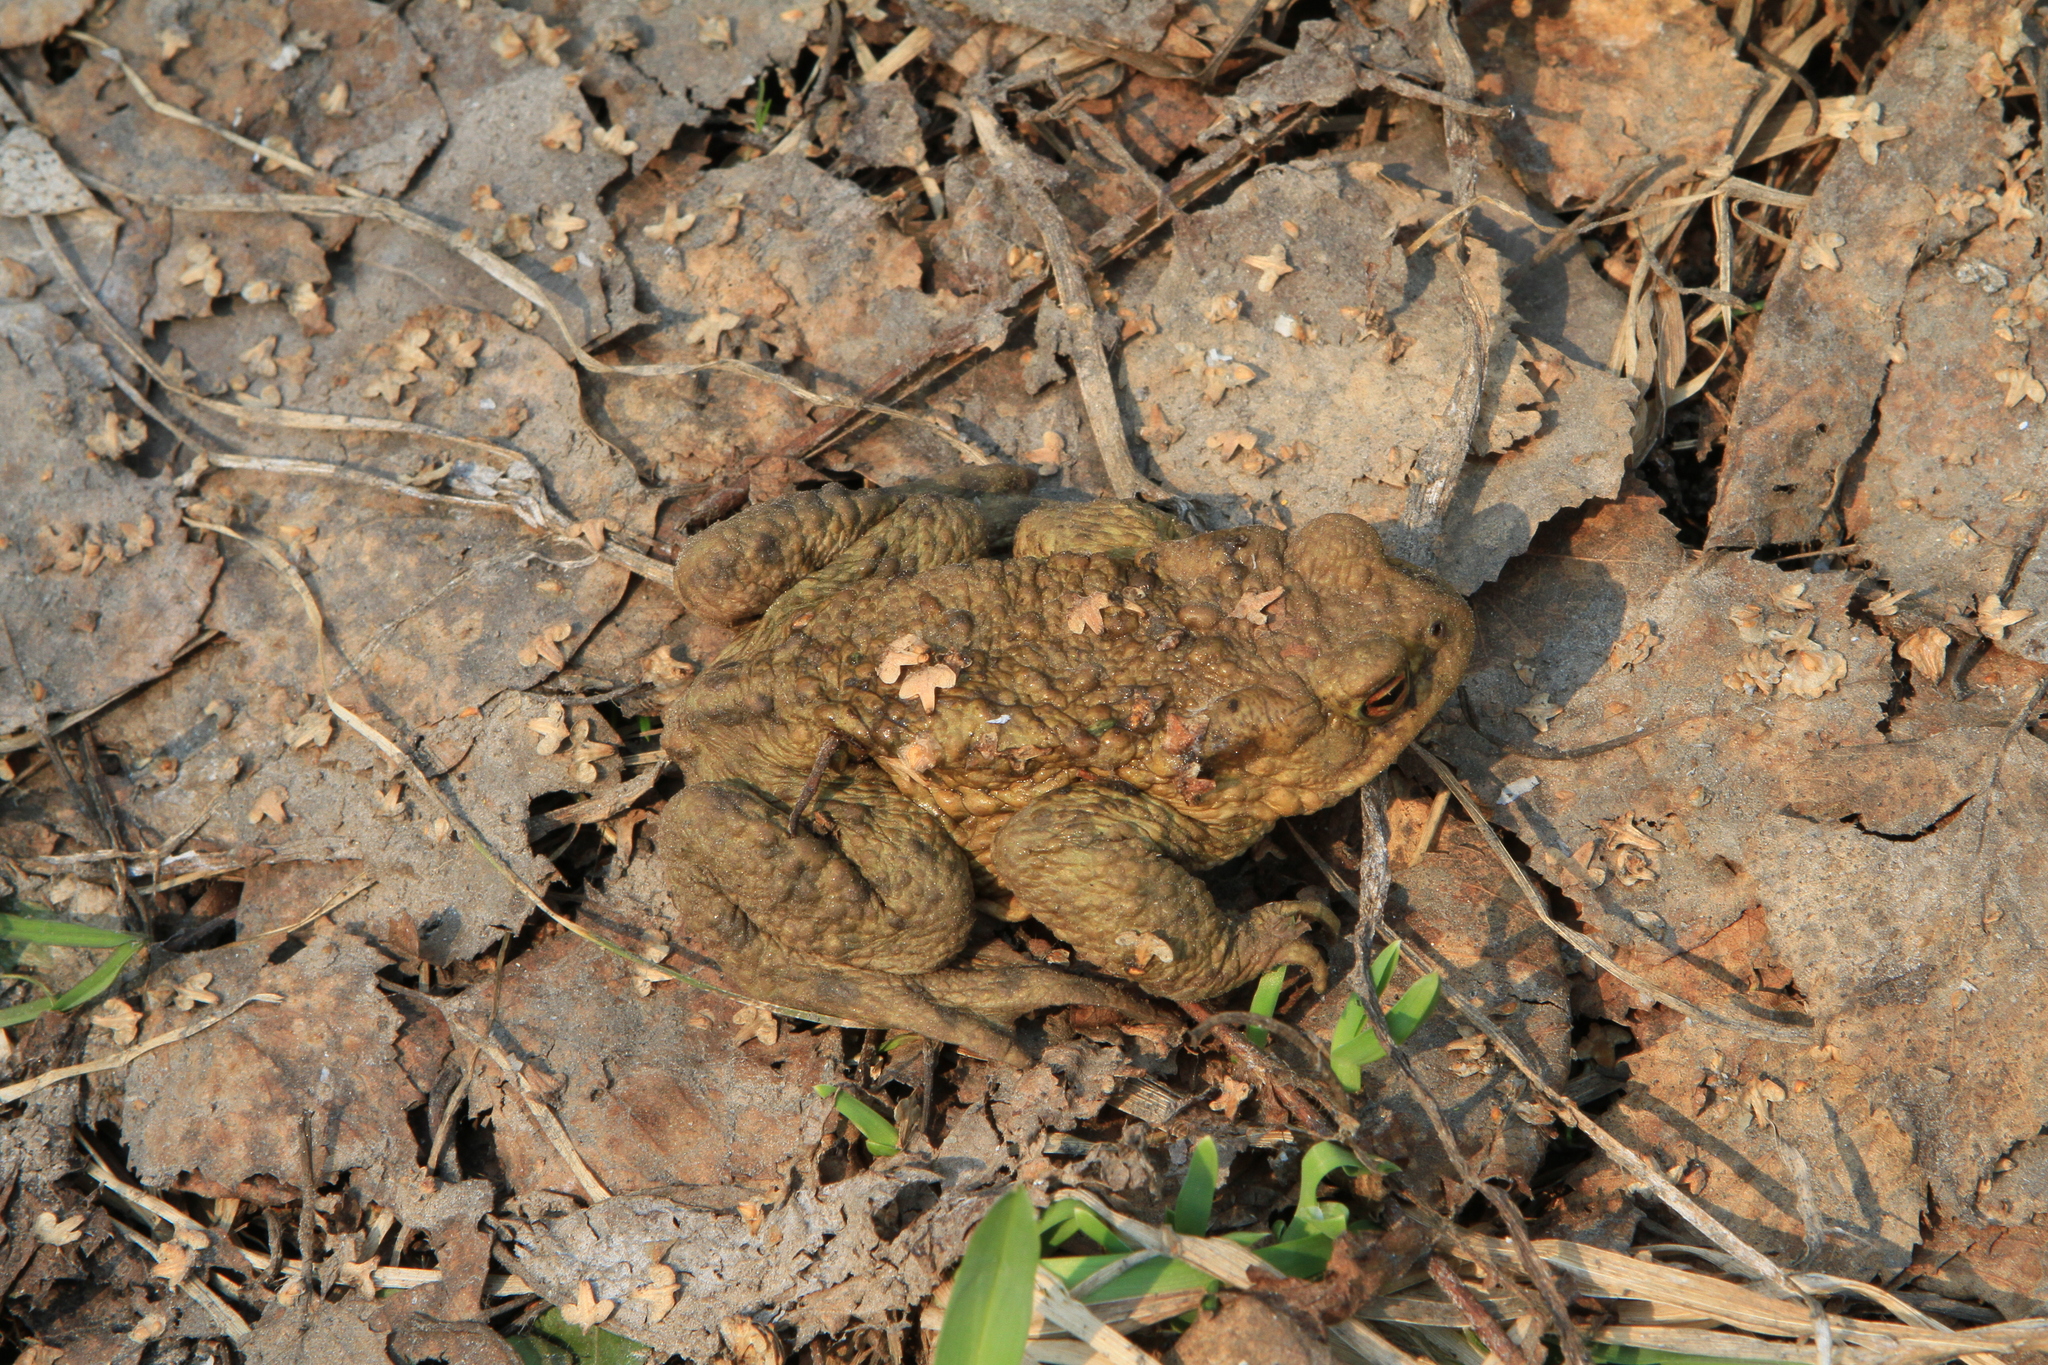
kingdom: Animalia
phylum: Chordata
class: Amphibia
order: Anura
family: Bufonidae
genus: Bufo
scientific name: Bufo bufo
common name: Common toad
